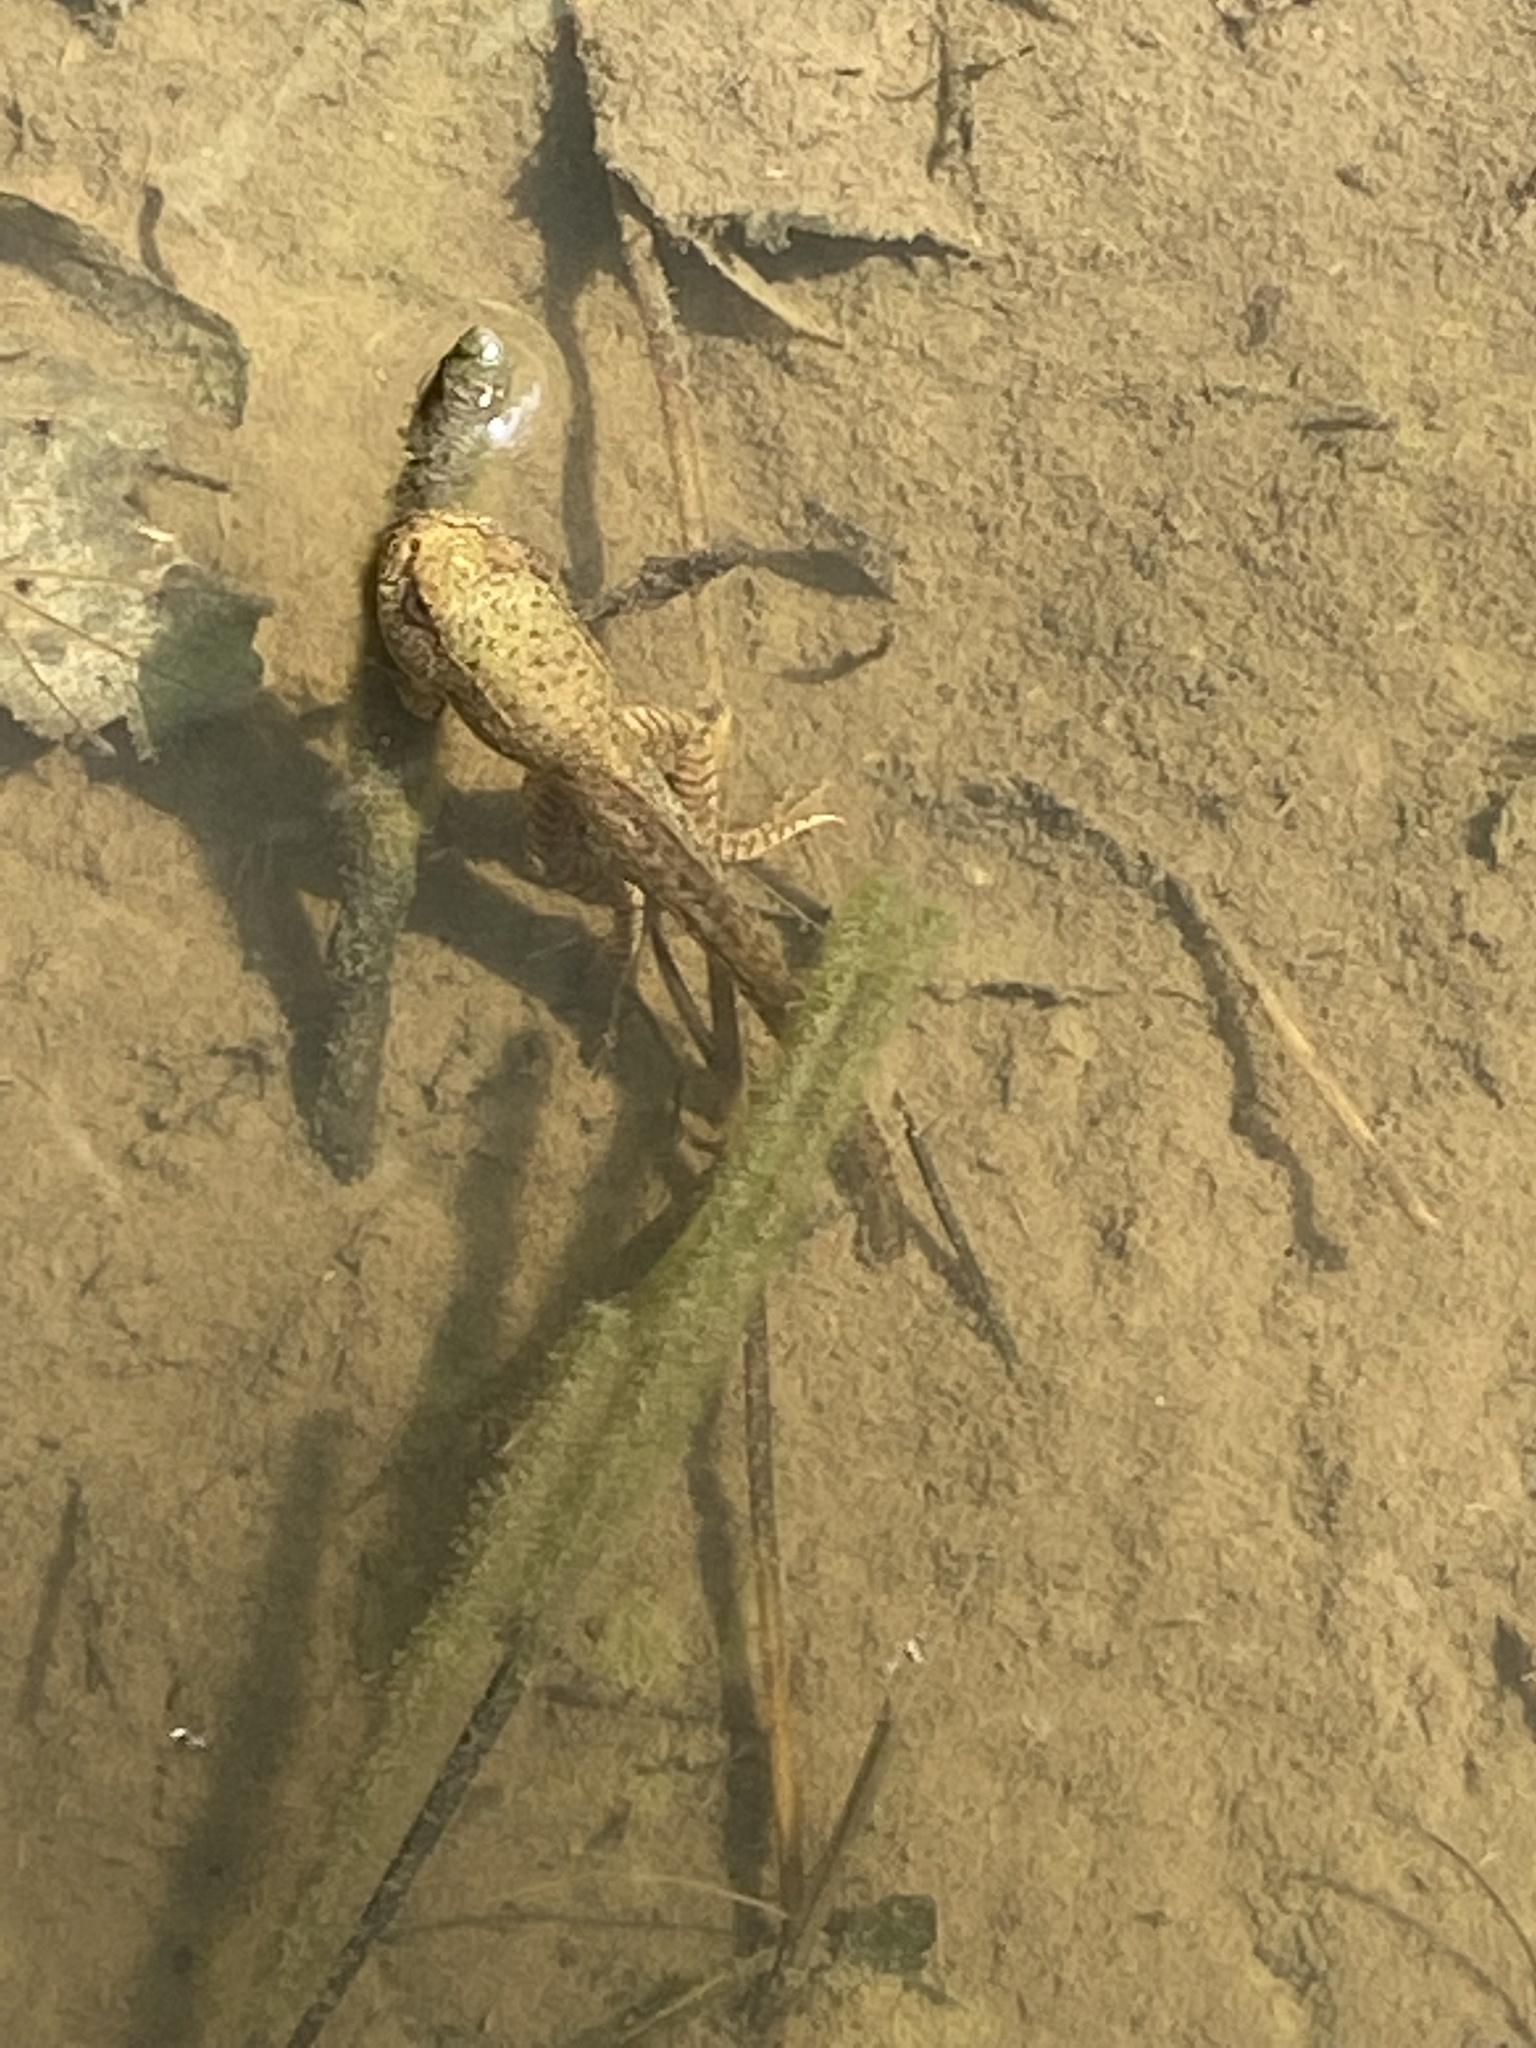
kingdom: Animalia
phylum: Chordata
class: Amphibia
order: Anura
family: Ranidae
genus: Lithobates
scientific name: Lithobates clamitans
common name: Green frog
